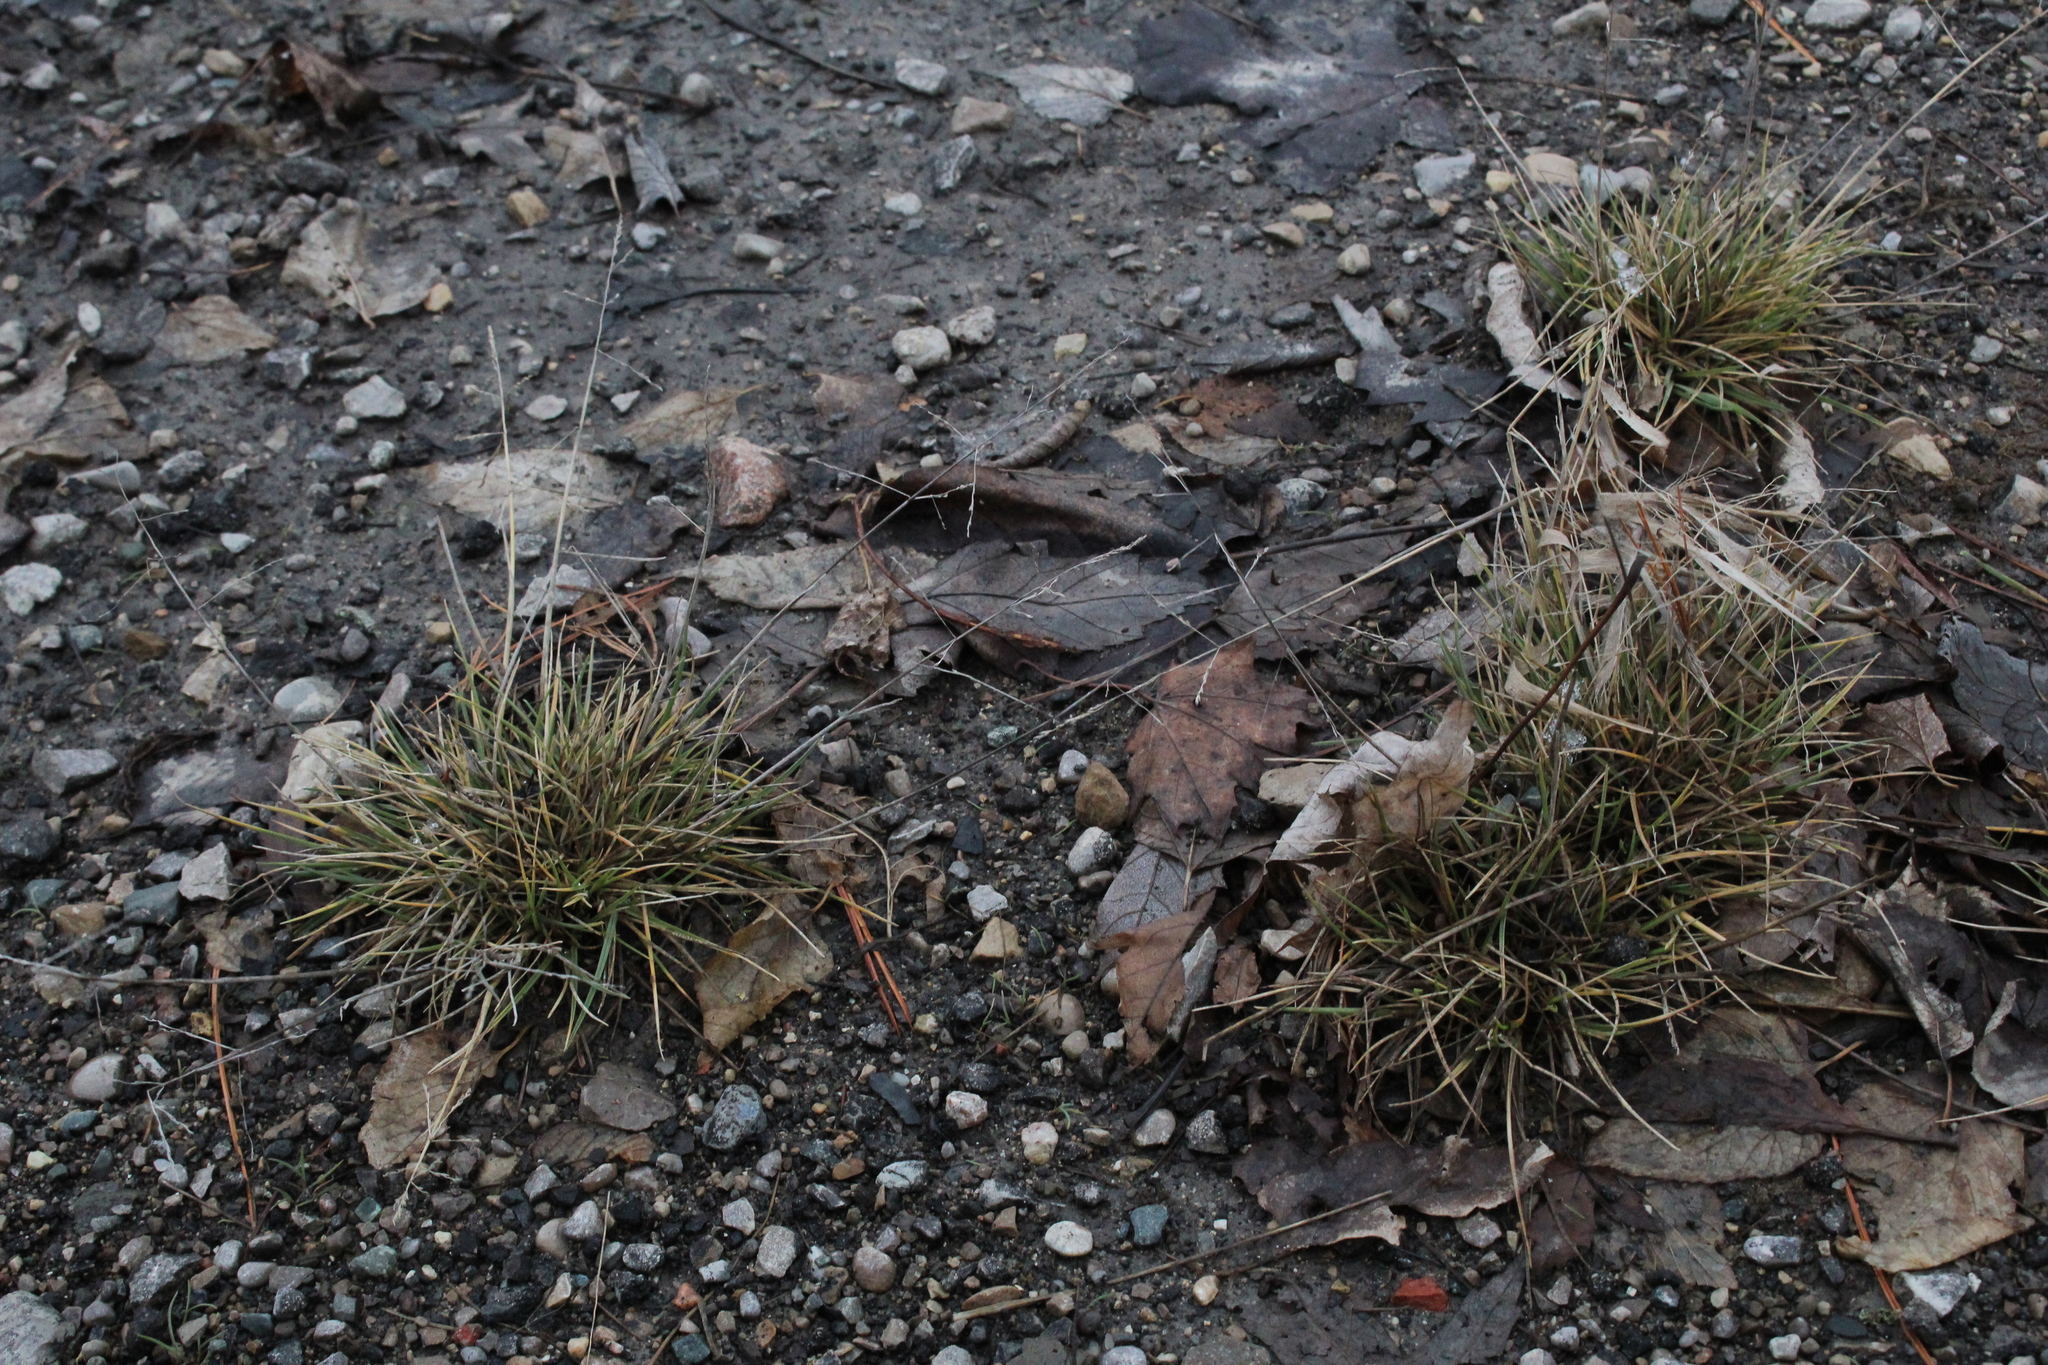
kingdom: Plantae
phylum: Tracheophyta
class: Liliopsida
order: Poales
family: Poaceae
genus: Puccinellia
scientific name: Puccinellia distans
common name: Weeping alkaligrass
